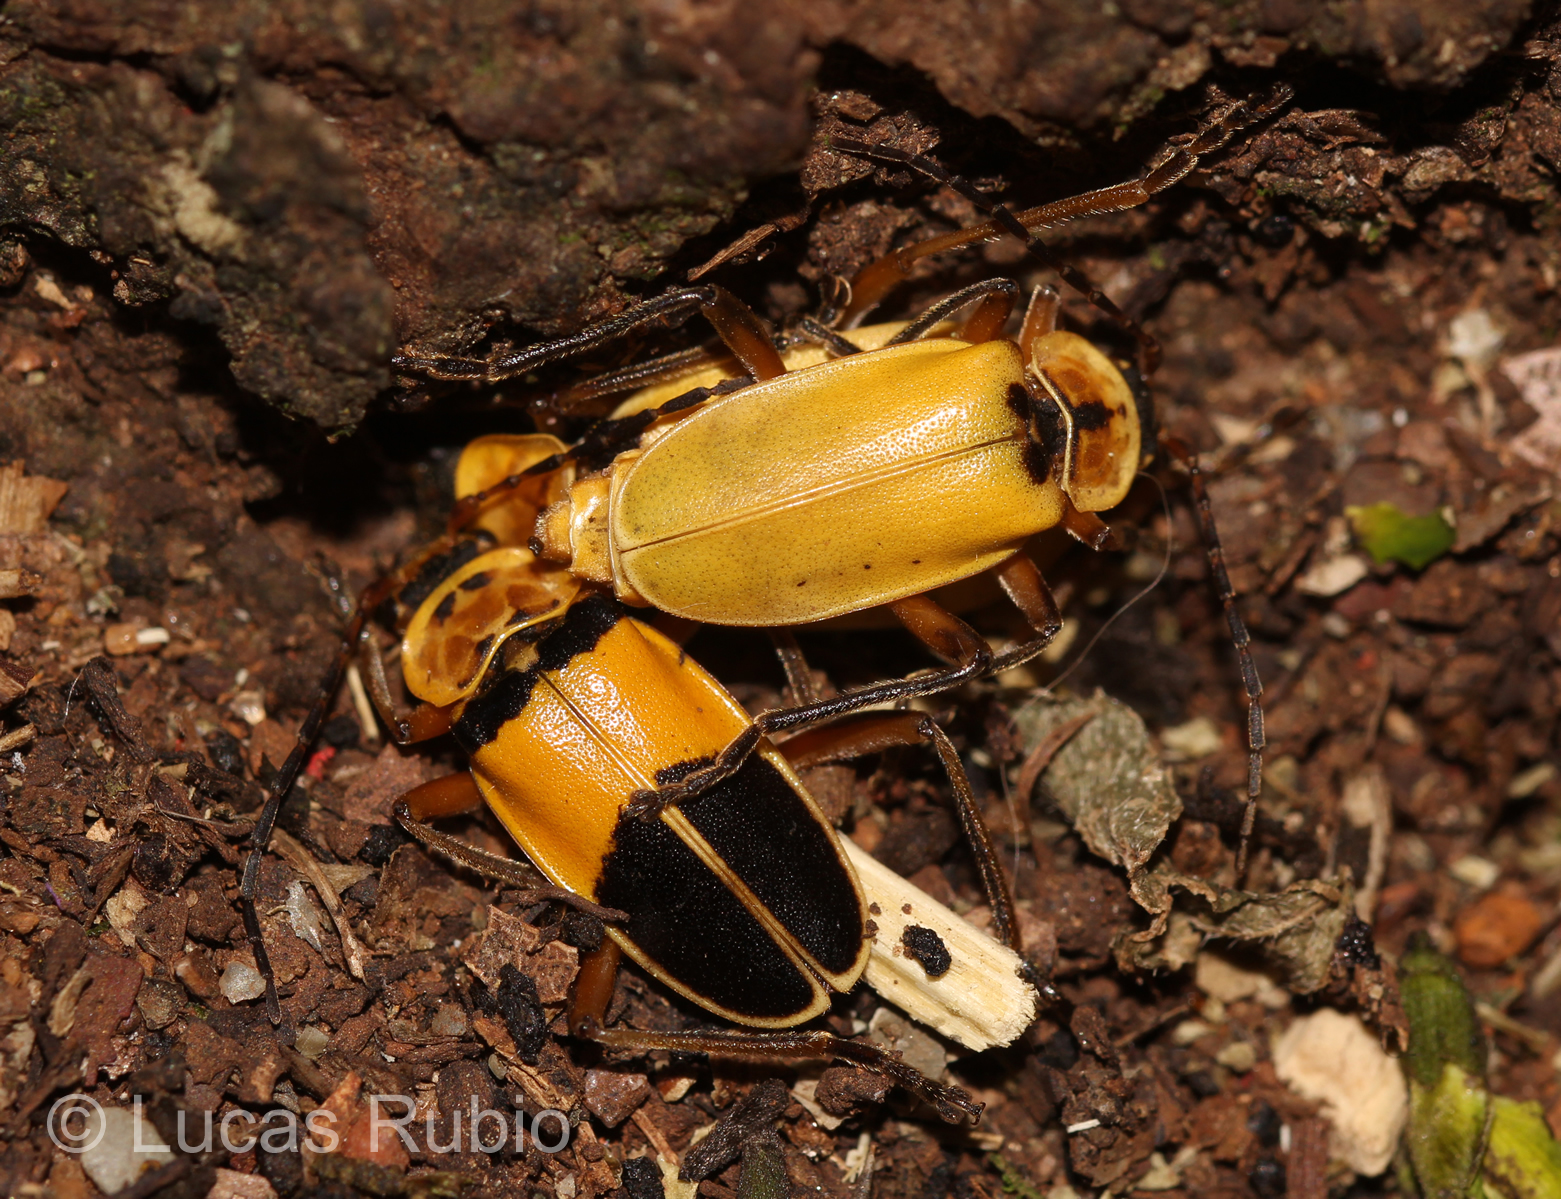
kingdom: Animalia
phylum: Arthropoda
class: Insecta
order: Coleoptera
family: Cantharidae
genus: Chauliognathus
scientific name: Chauliognathus
